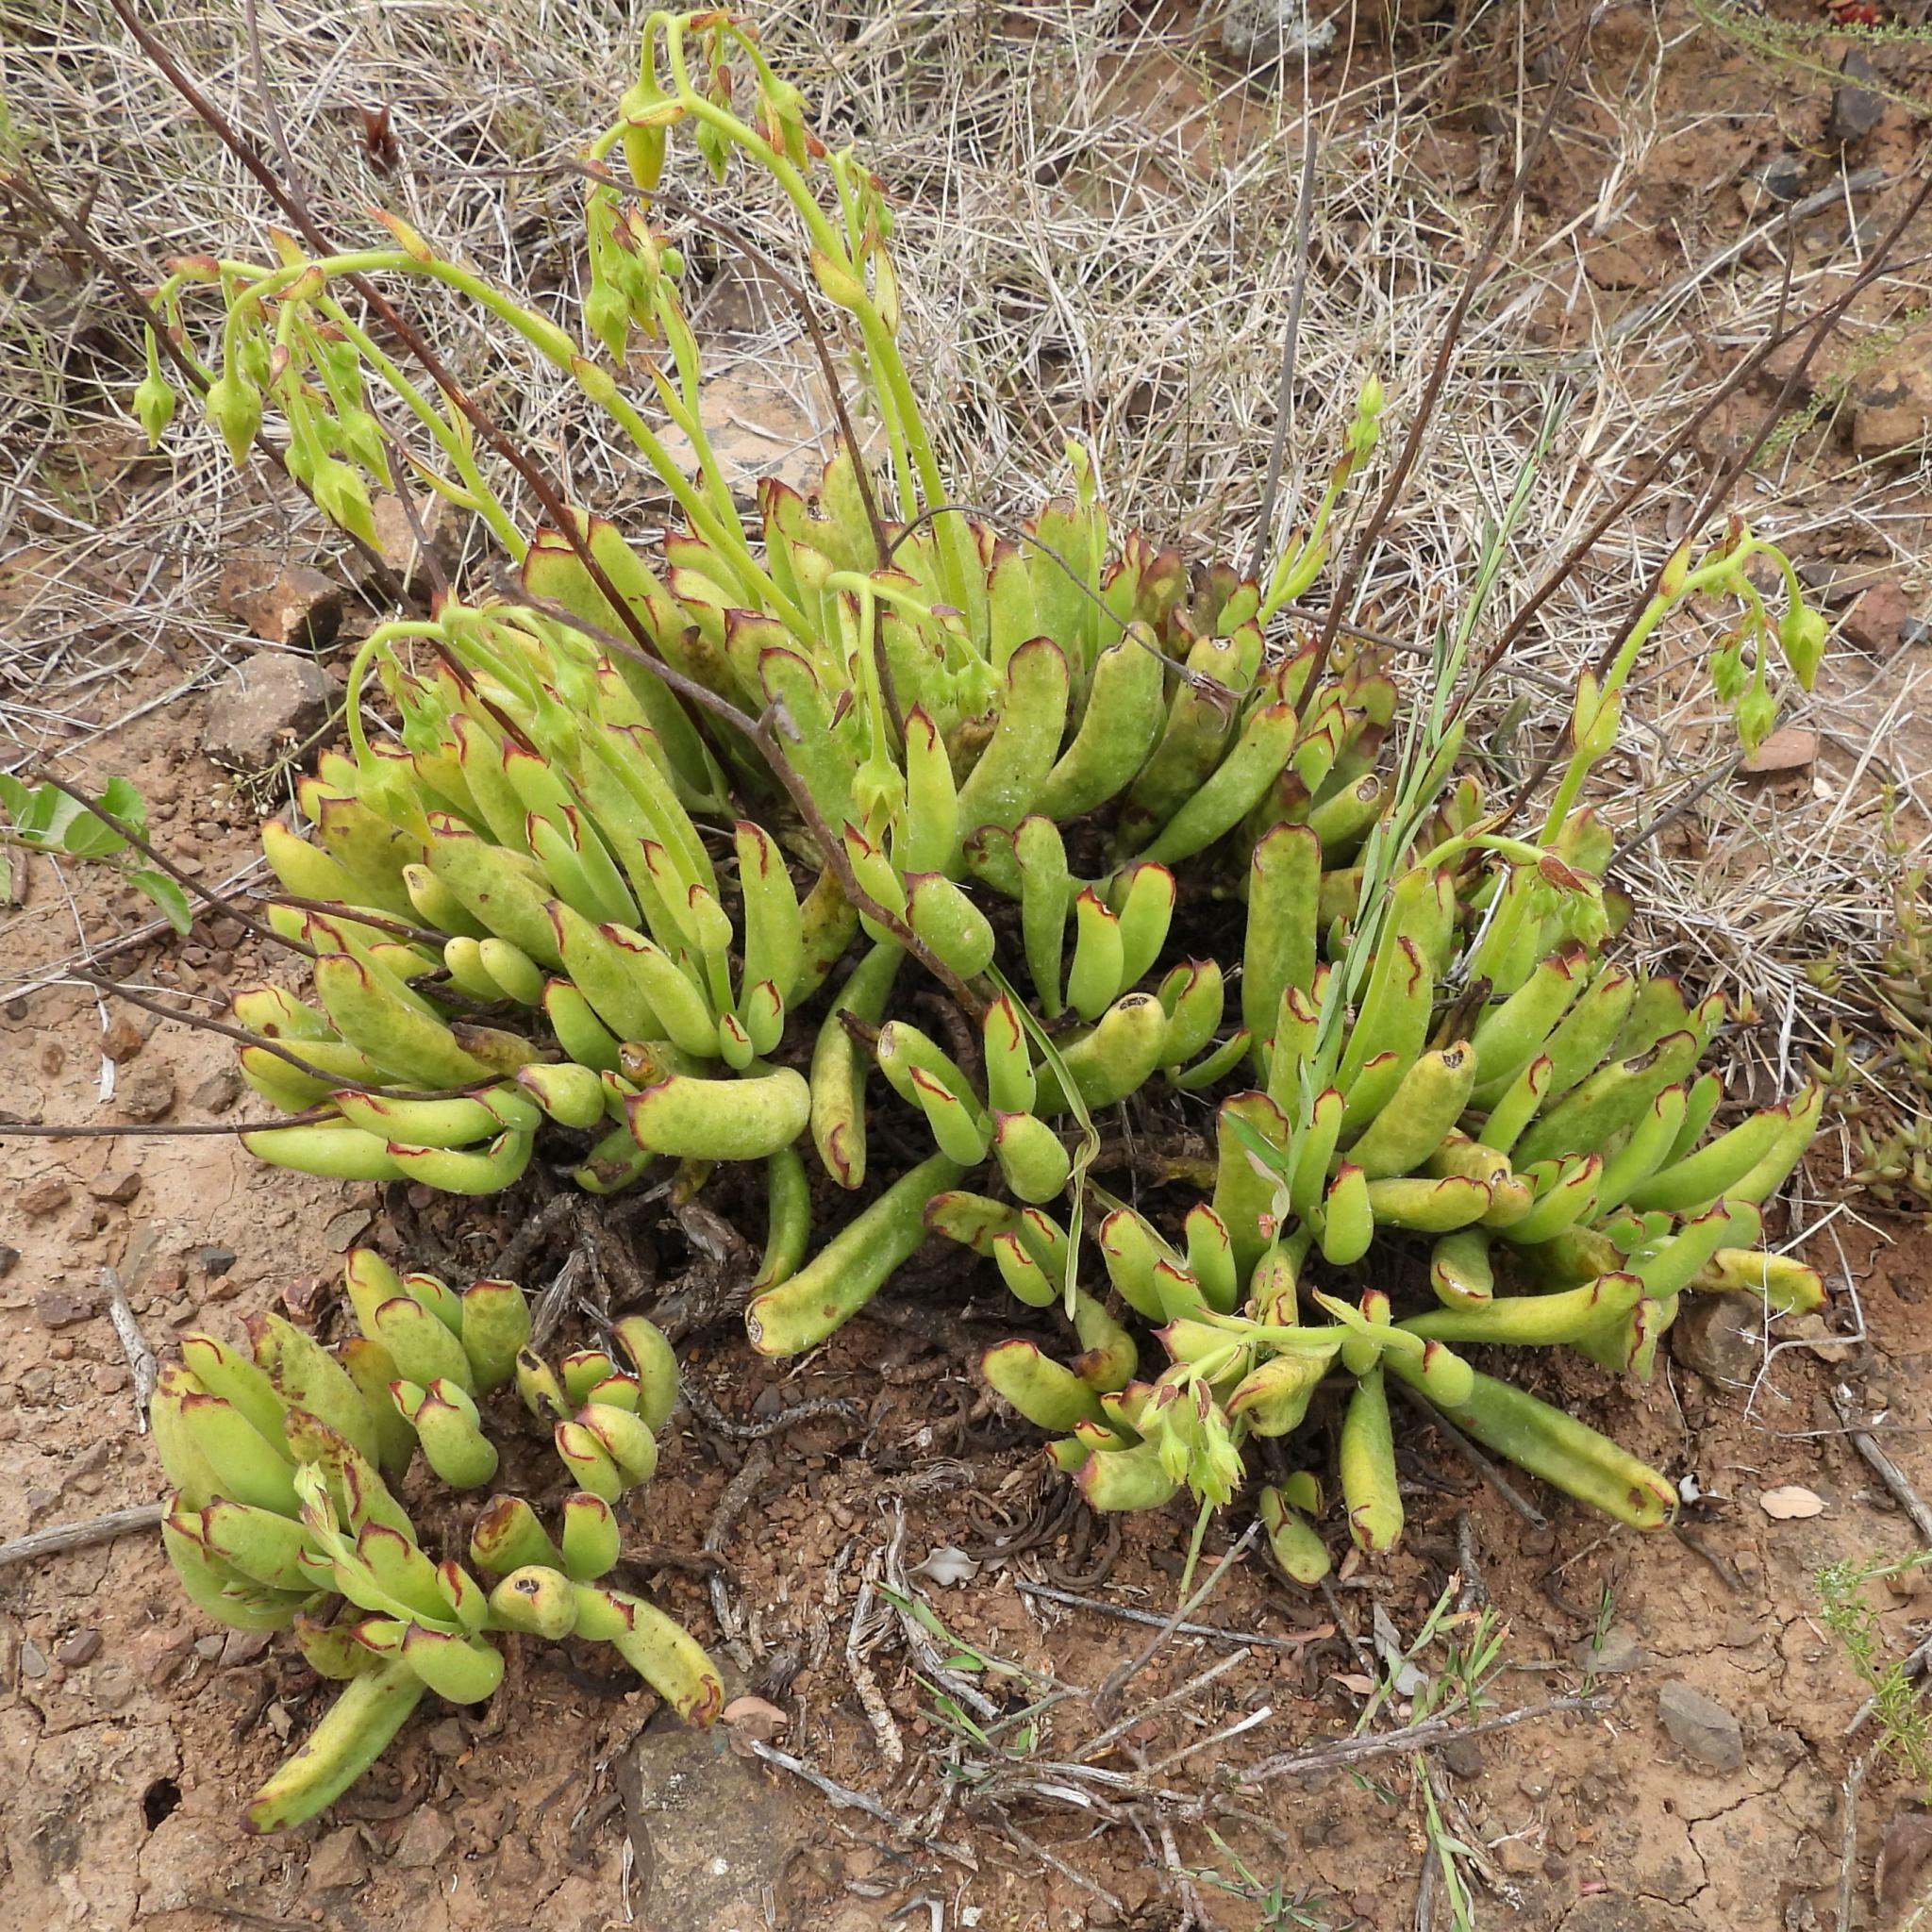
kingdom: Plantae
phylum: Tracheophyta
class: Magnoliopsida
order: Saxifragales
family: Crassulaceae
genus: Cotyledon
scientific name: Cotyledon campanulata
